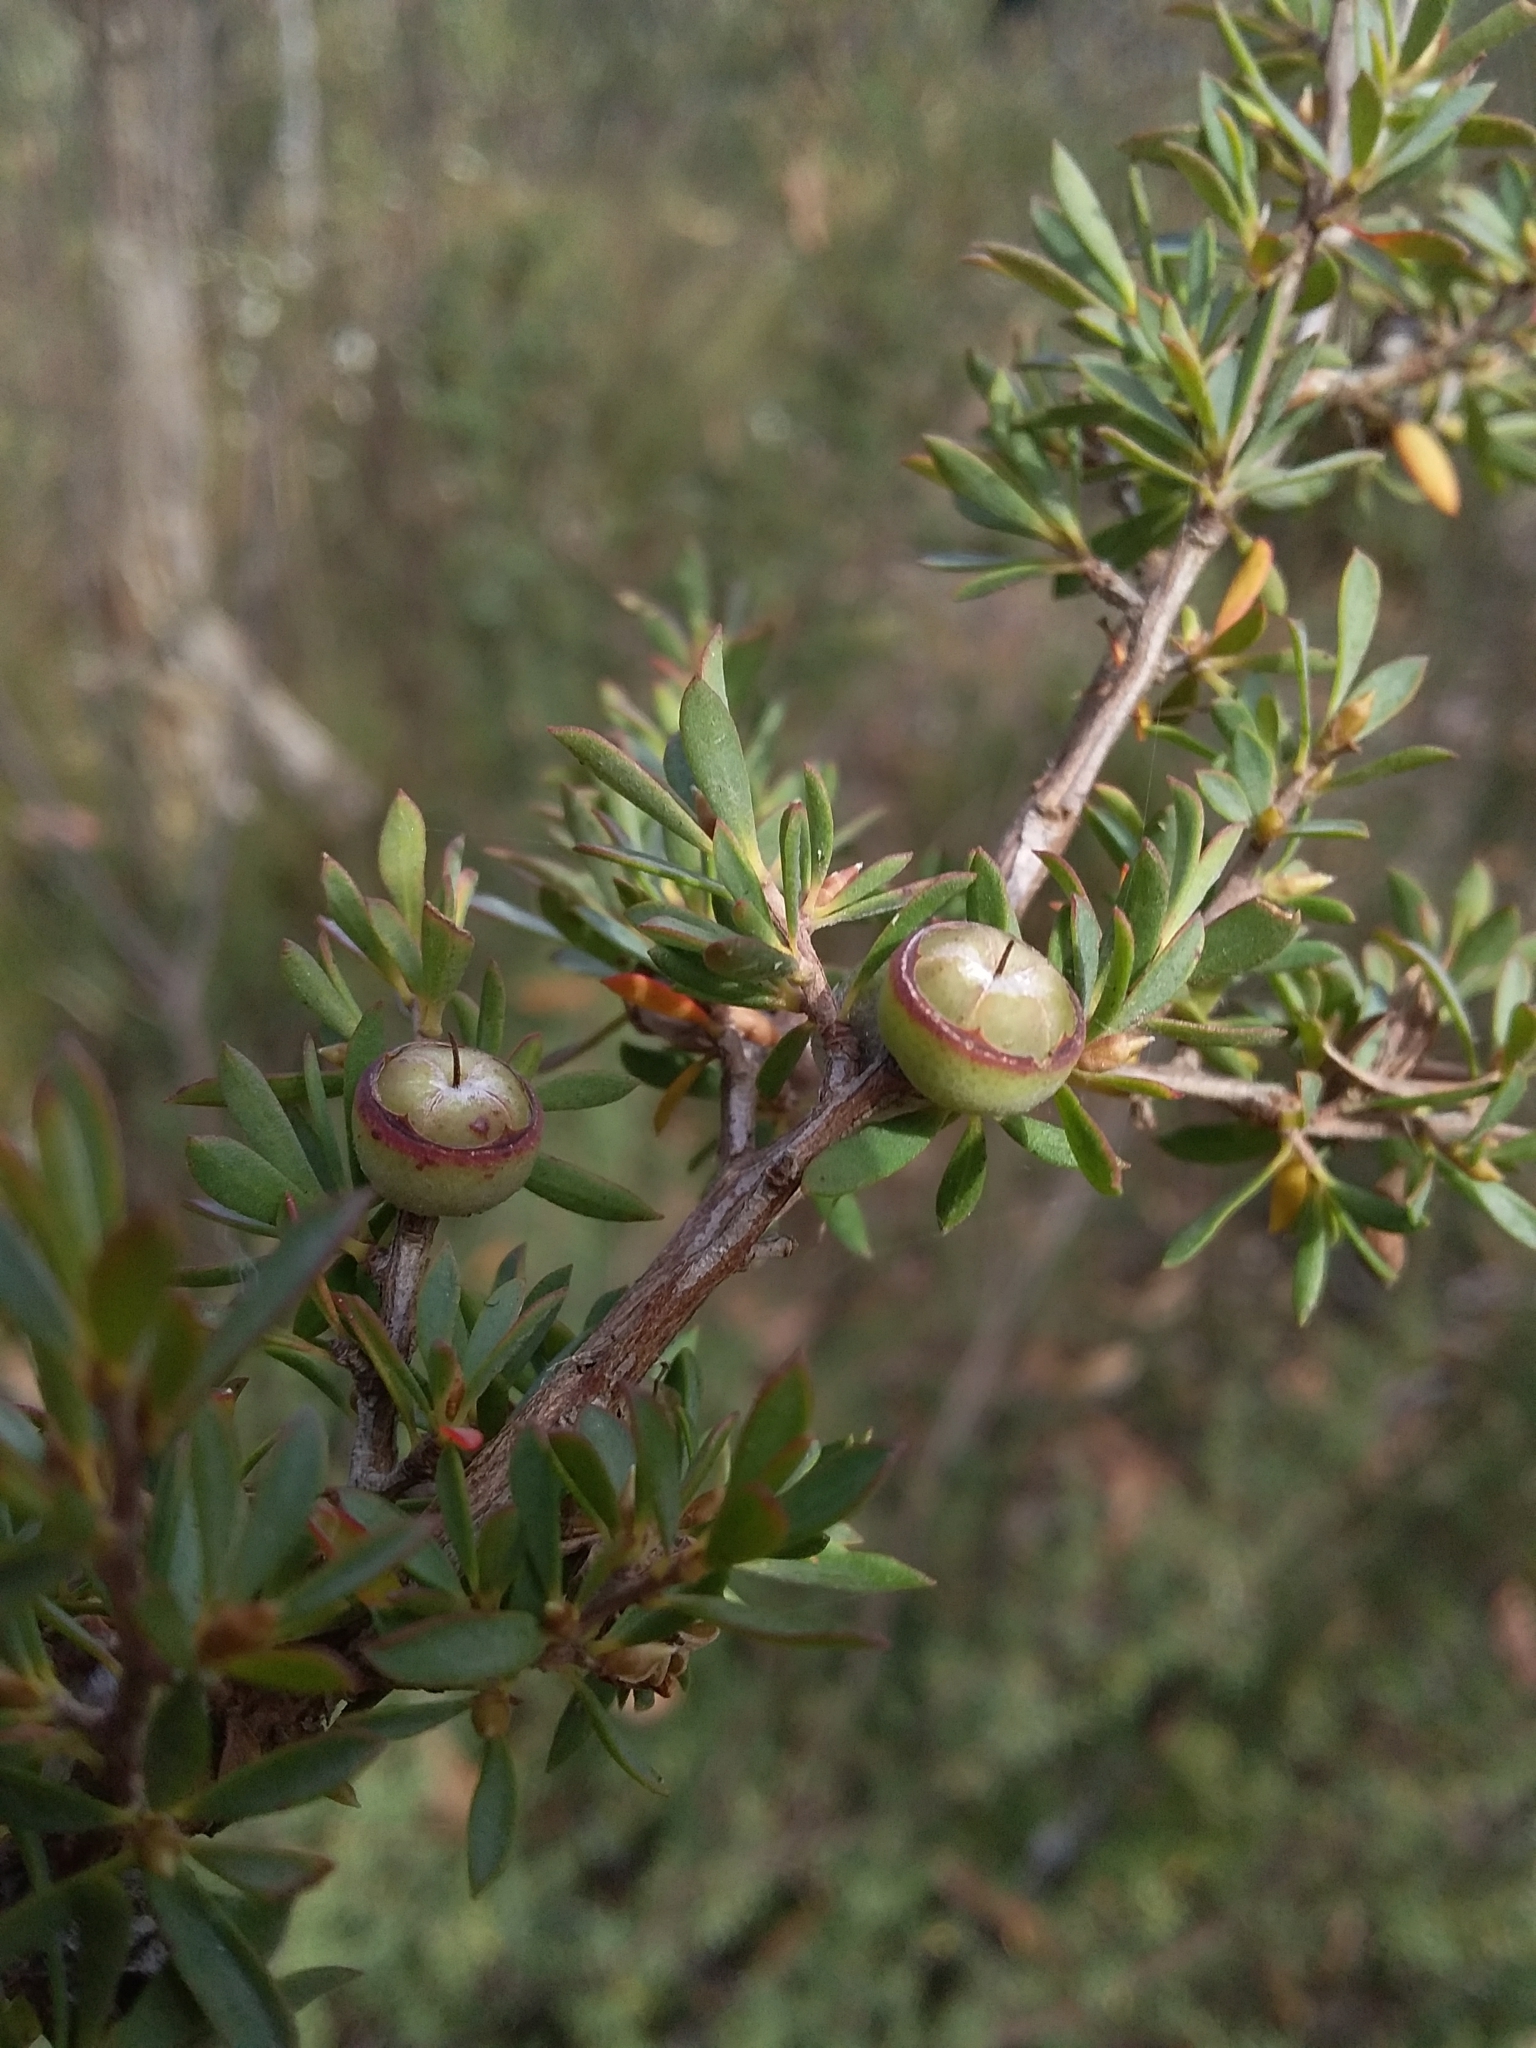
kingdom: Plantae
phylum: Tracheophyta
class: Magnoliopsida
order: Myrtales
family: Myrtaceae
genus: Leptospermum
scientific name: Leptospermum myrsinoides
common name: Heath teatree
